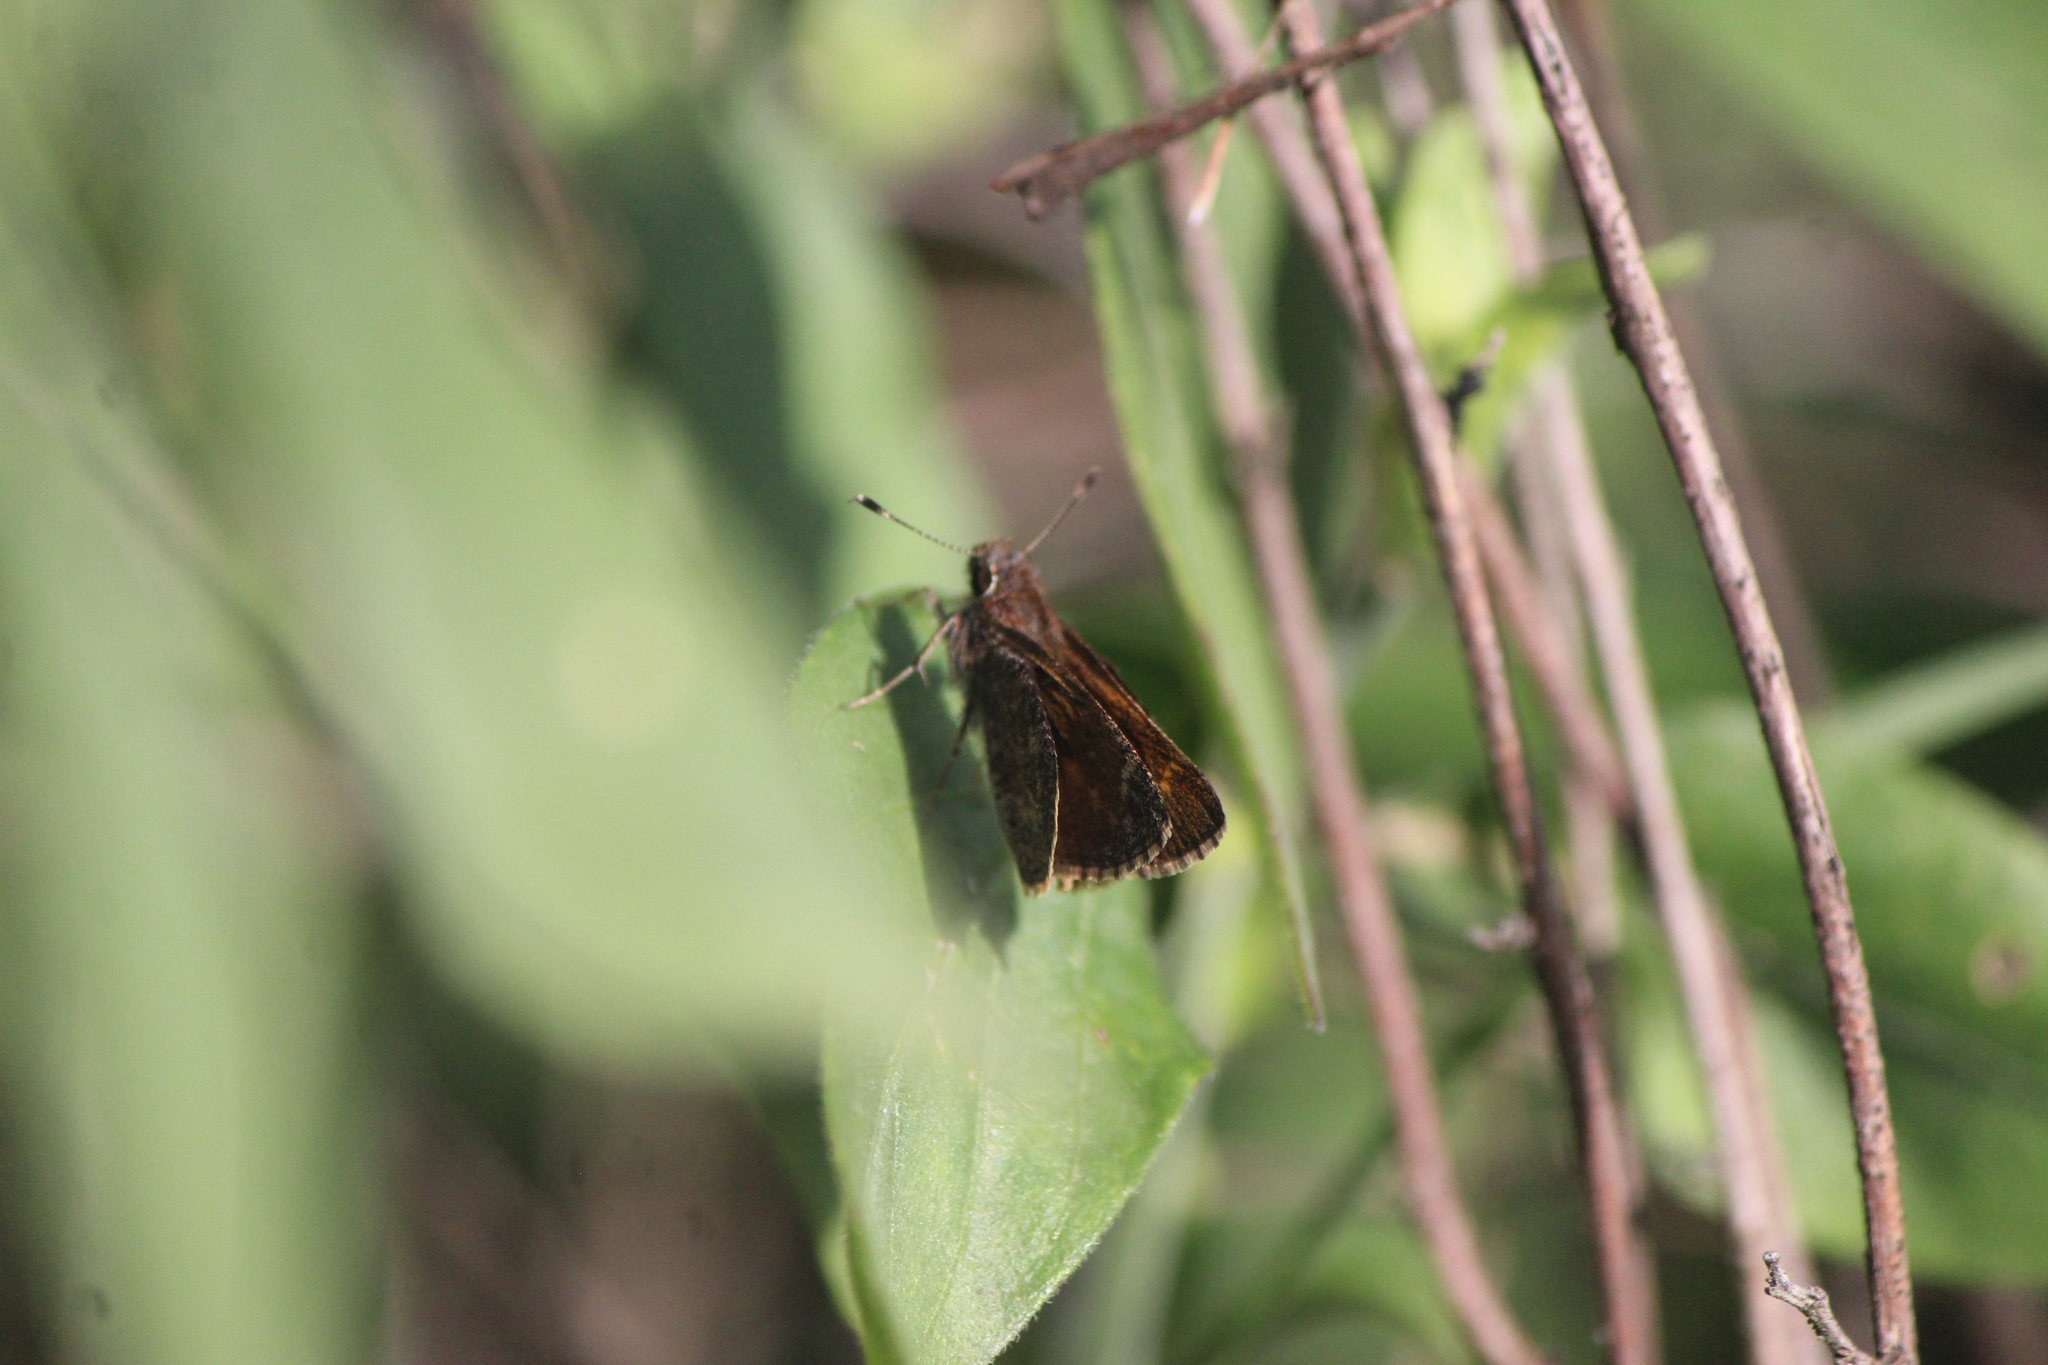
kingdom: Animalia
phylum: Arthropoda
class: Insecta
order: Lepidoptera
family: Hesperiidae
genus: Mastor
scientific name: Mastor fluonia
